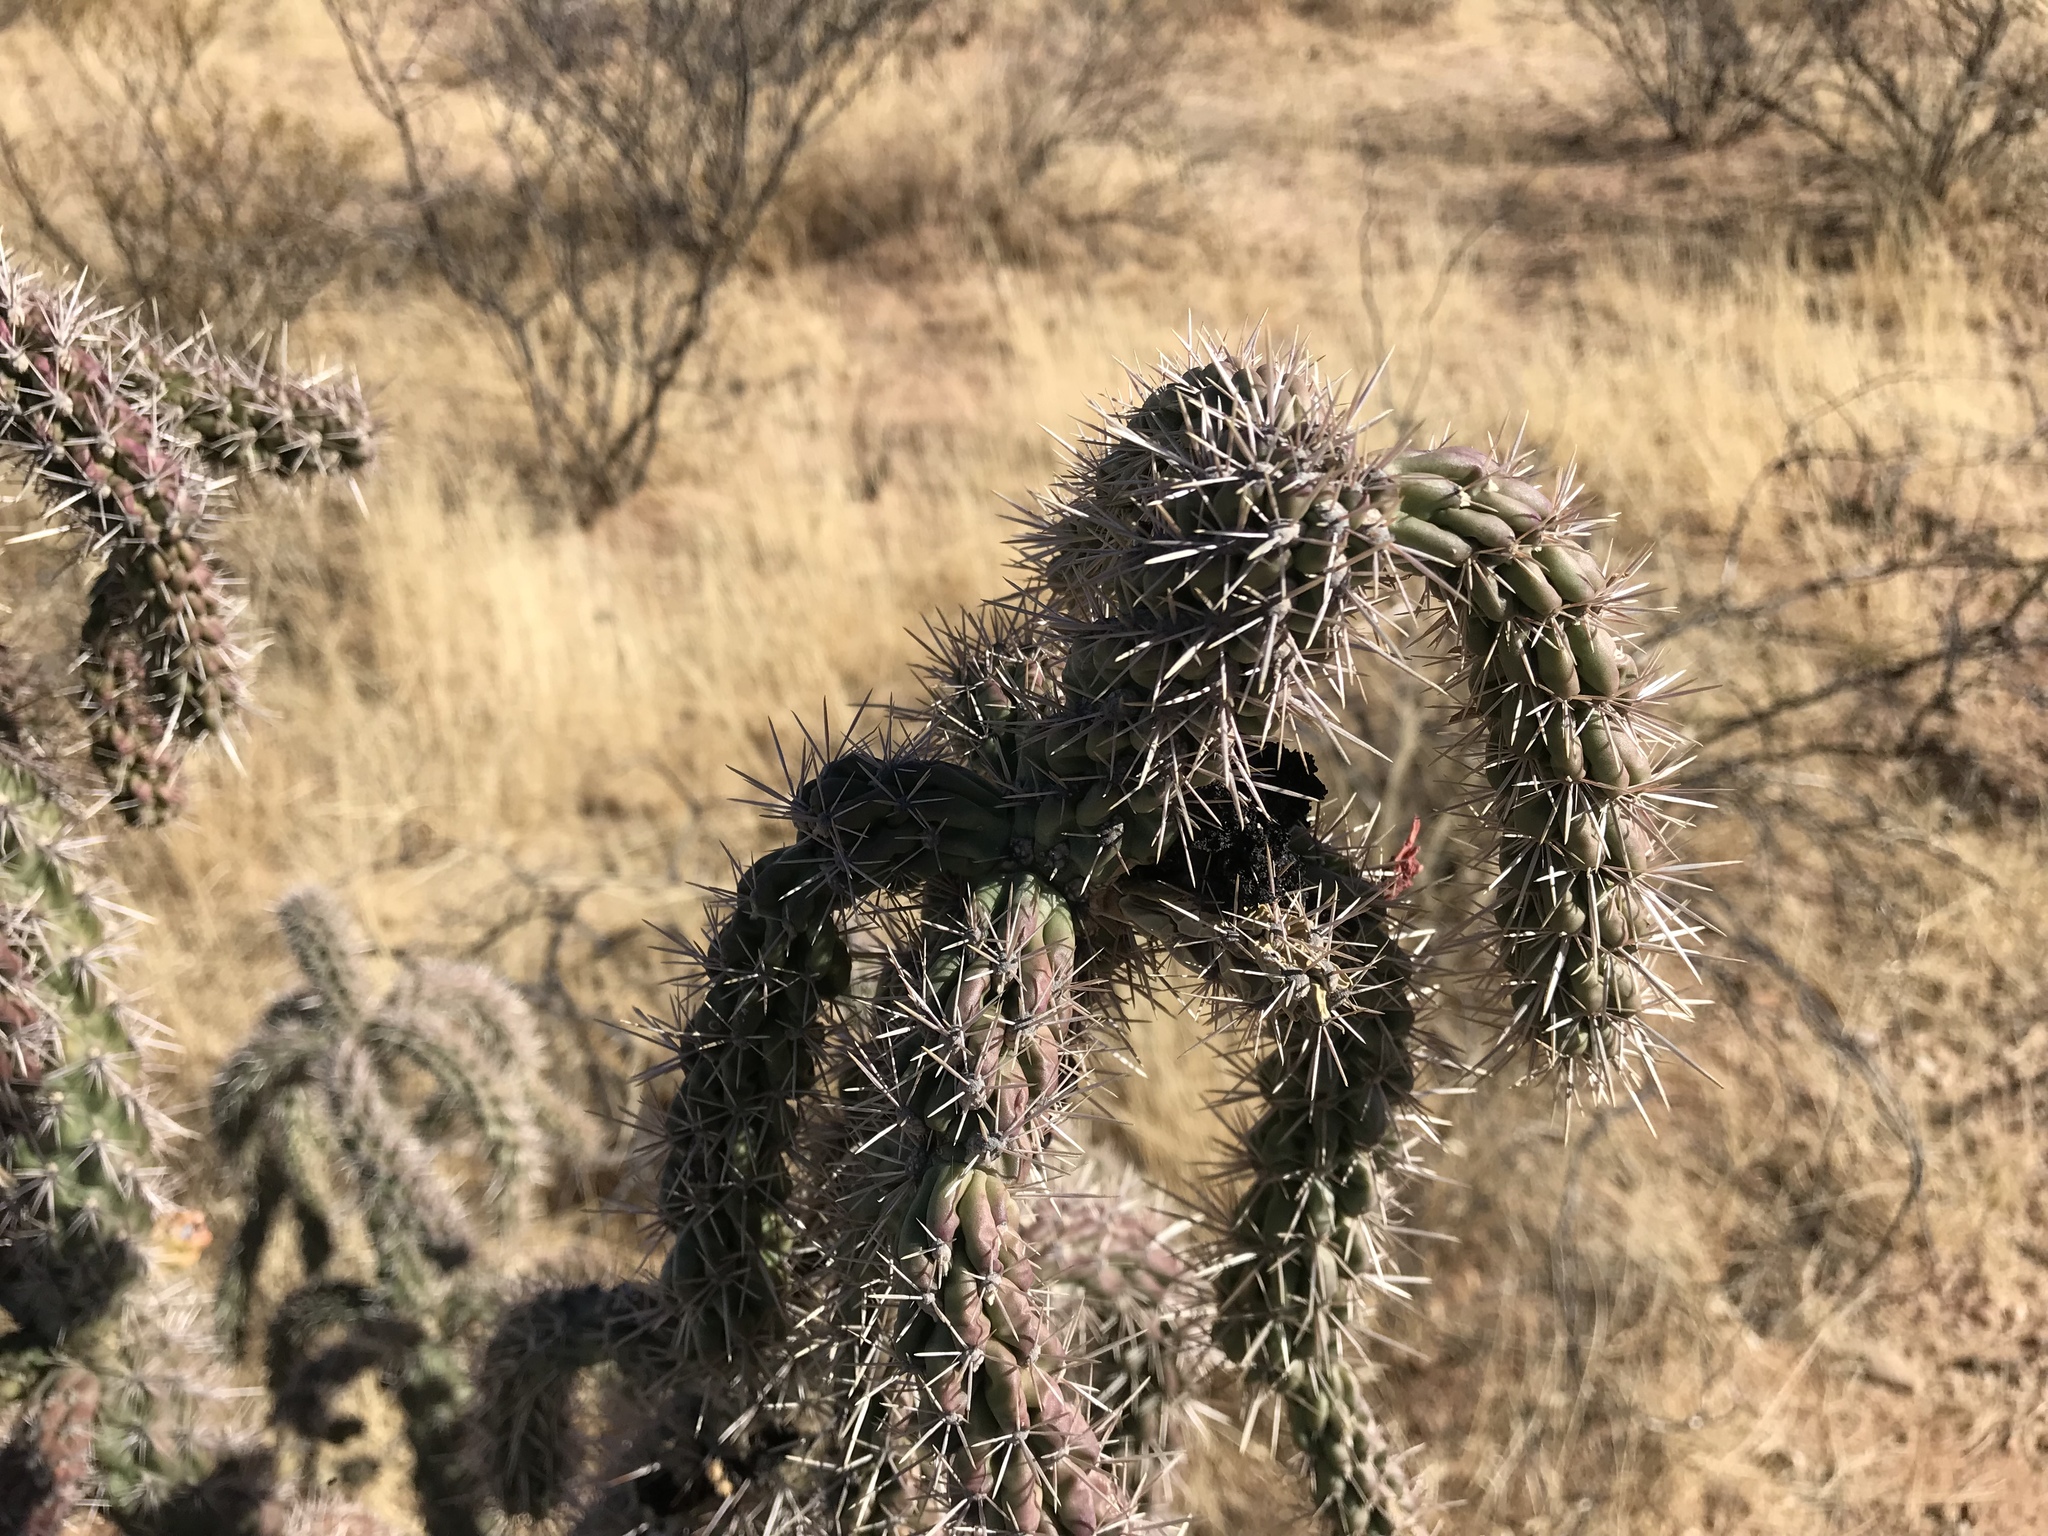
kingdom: Plantae
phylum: Tracheophyta
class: Magnoliopsida
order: Caryophyllales
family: Cactaceae
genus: Cylindropuntia
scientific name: Cylindropuntia imbricata
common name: Candelabrum cactus
